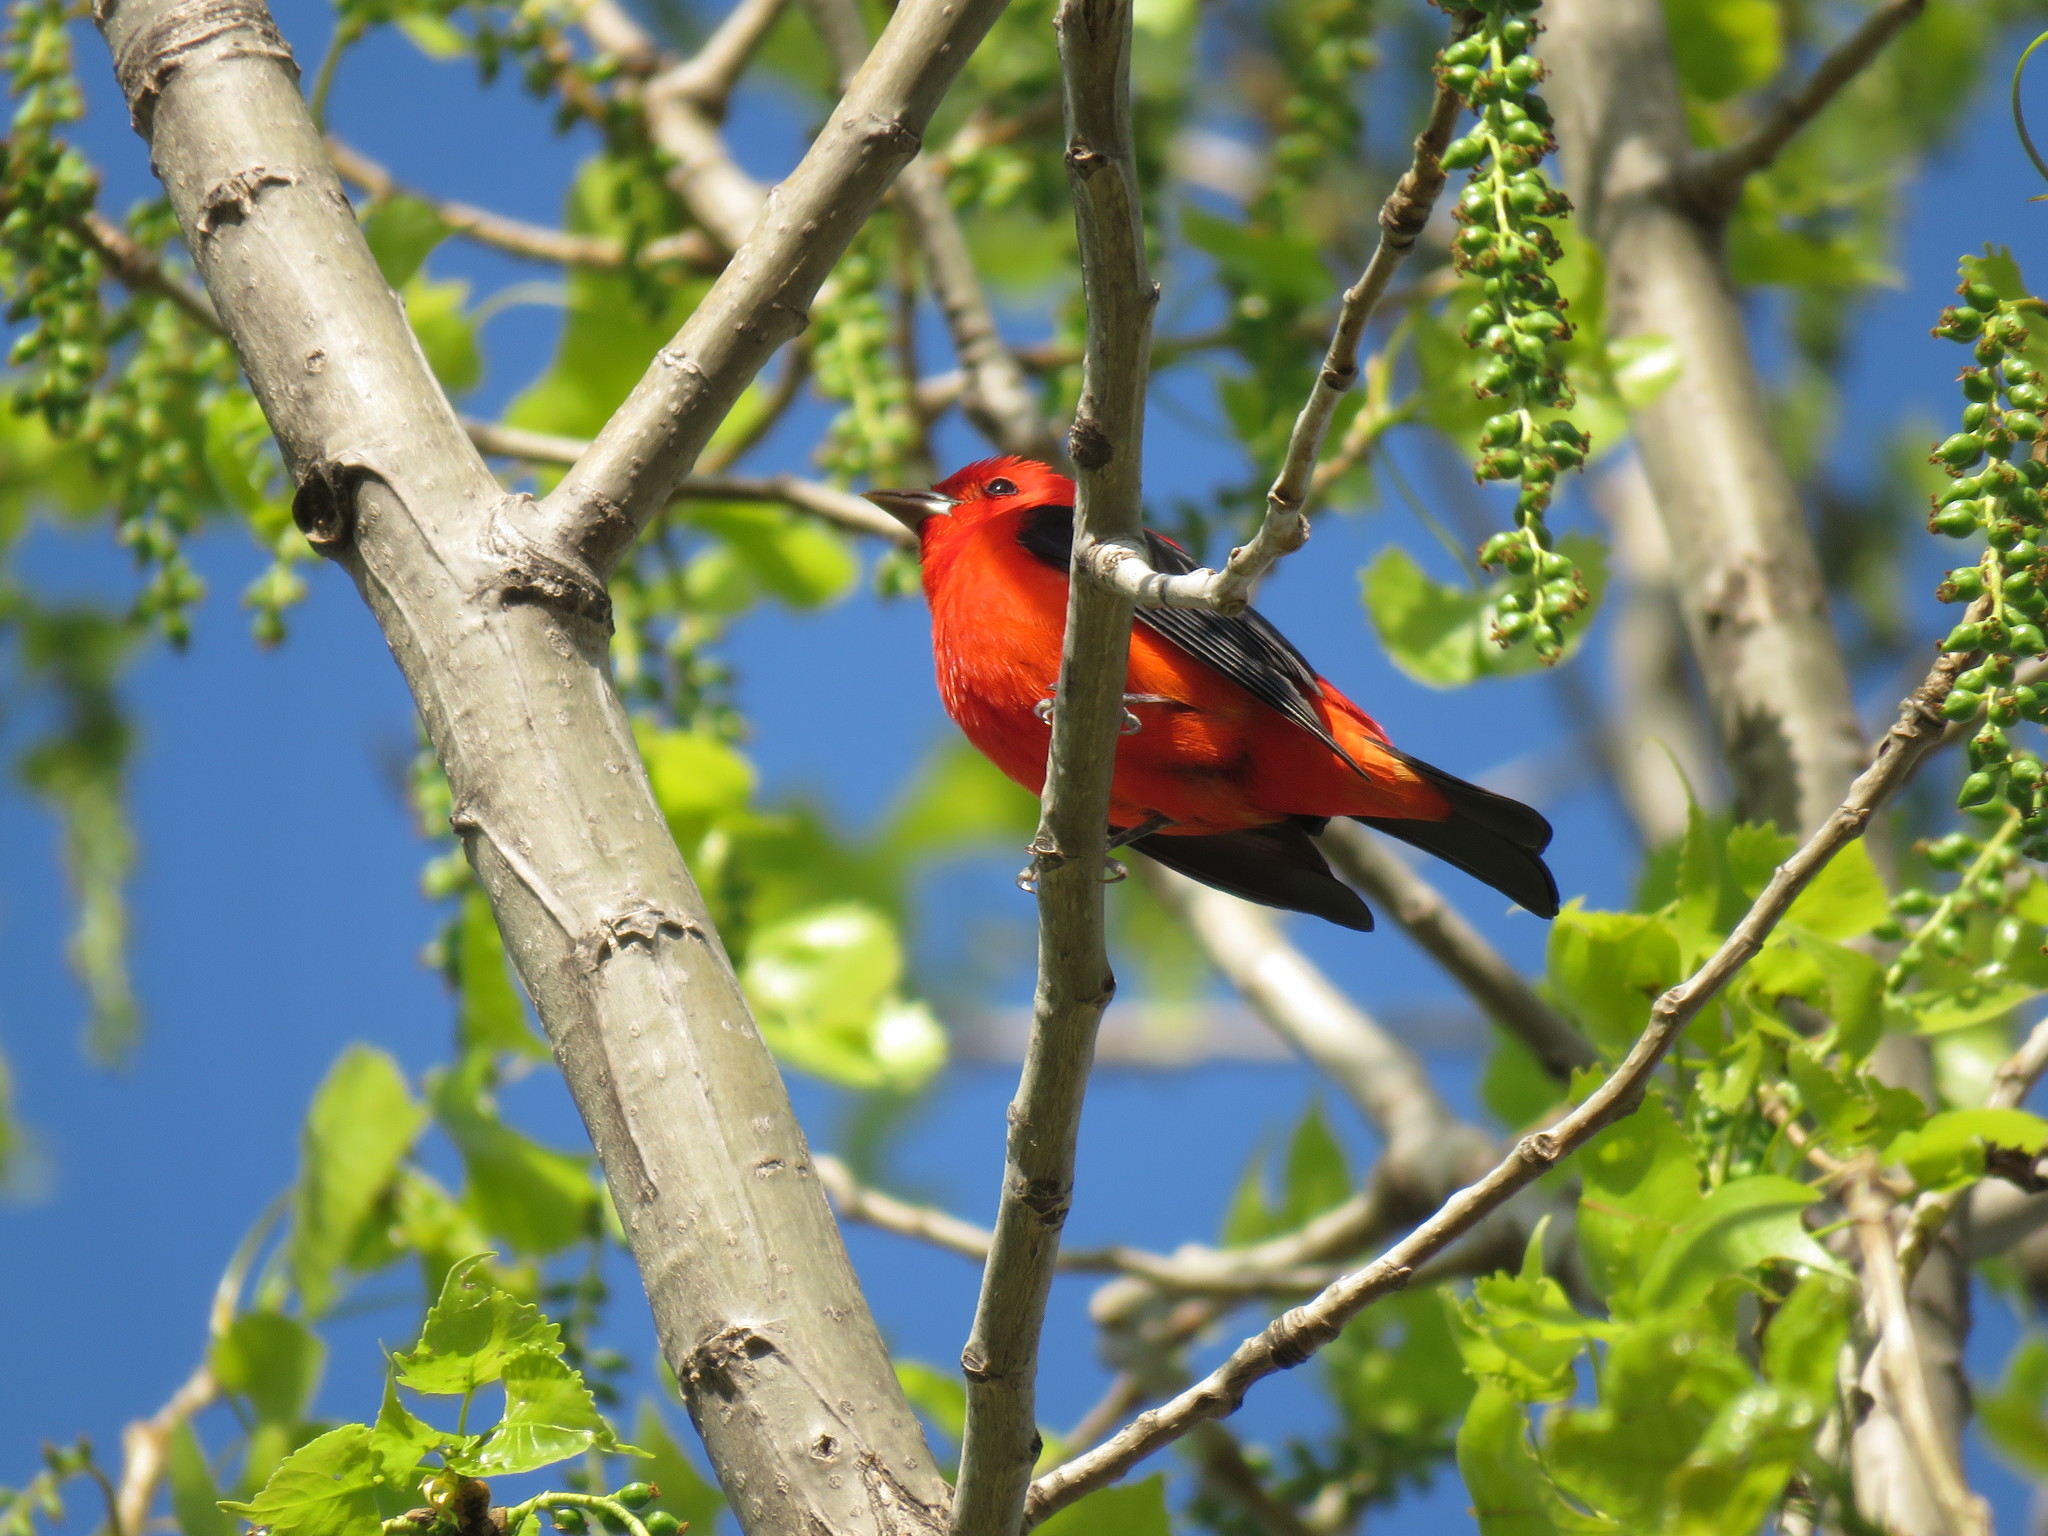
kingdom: Animalia
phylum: Chordata
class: Aves
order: Passeriformes
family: Cardinalidae
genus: Piranga
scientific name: Piranga olivacea
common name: Scarlet tanager
